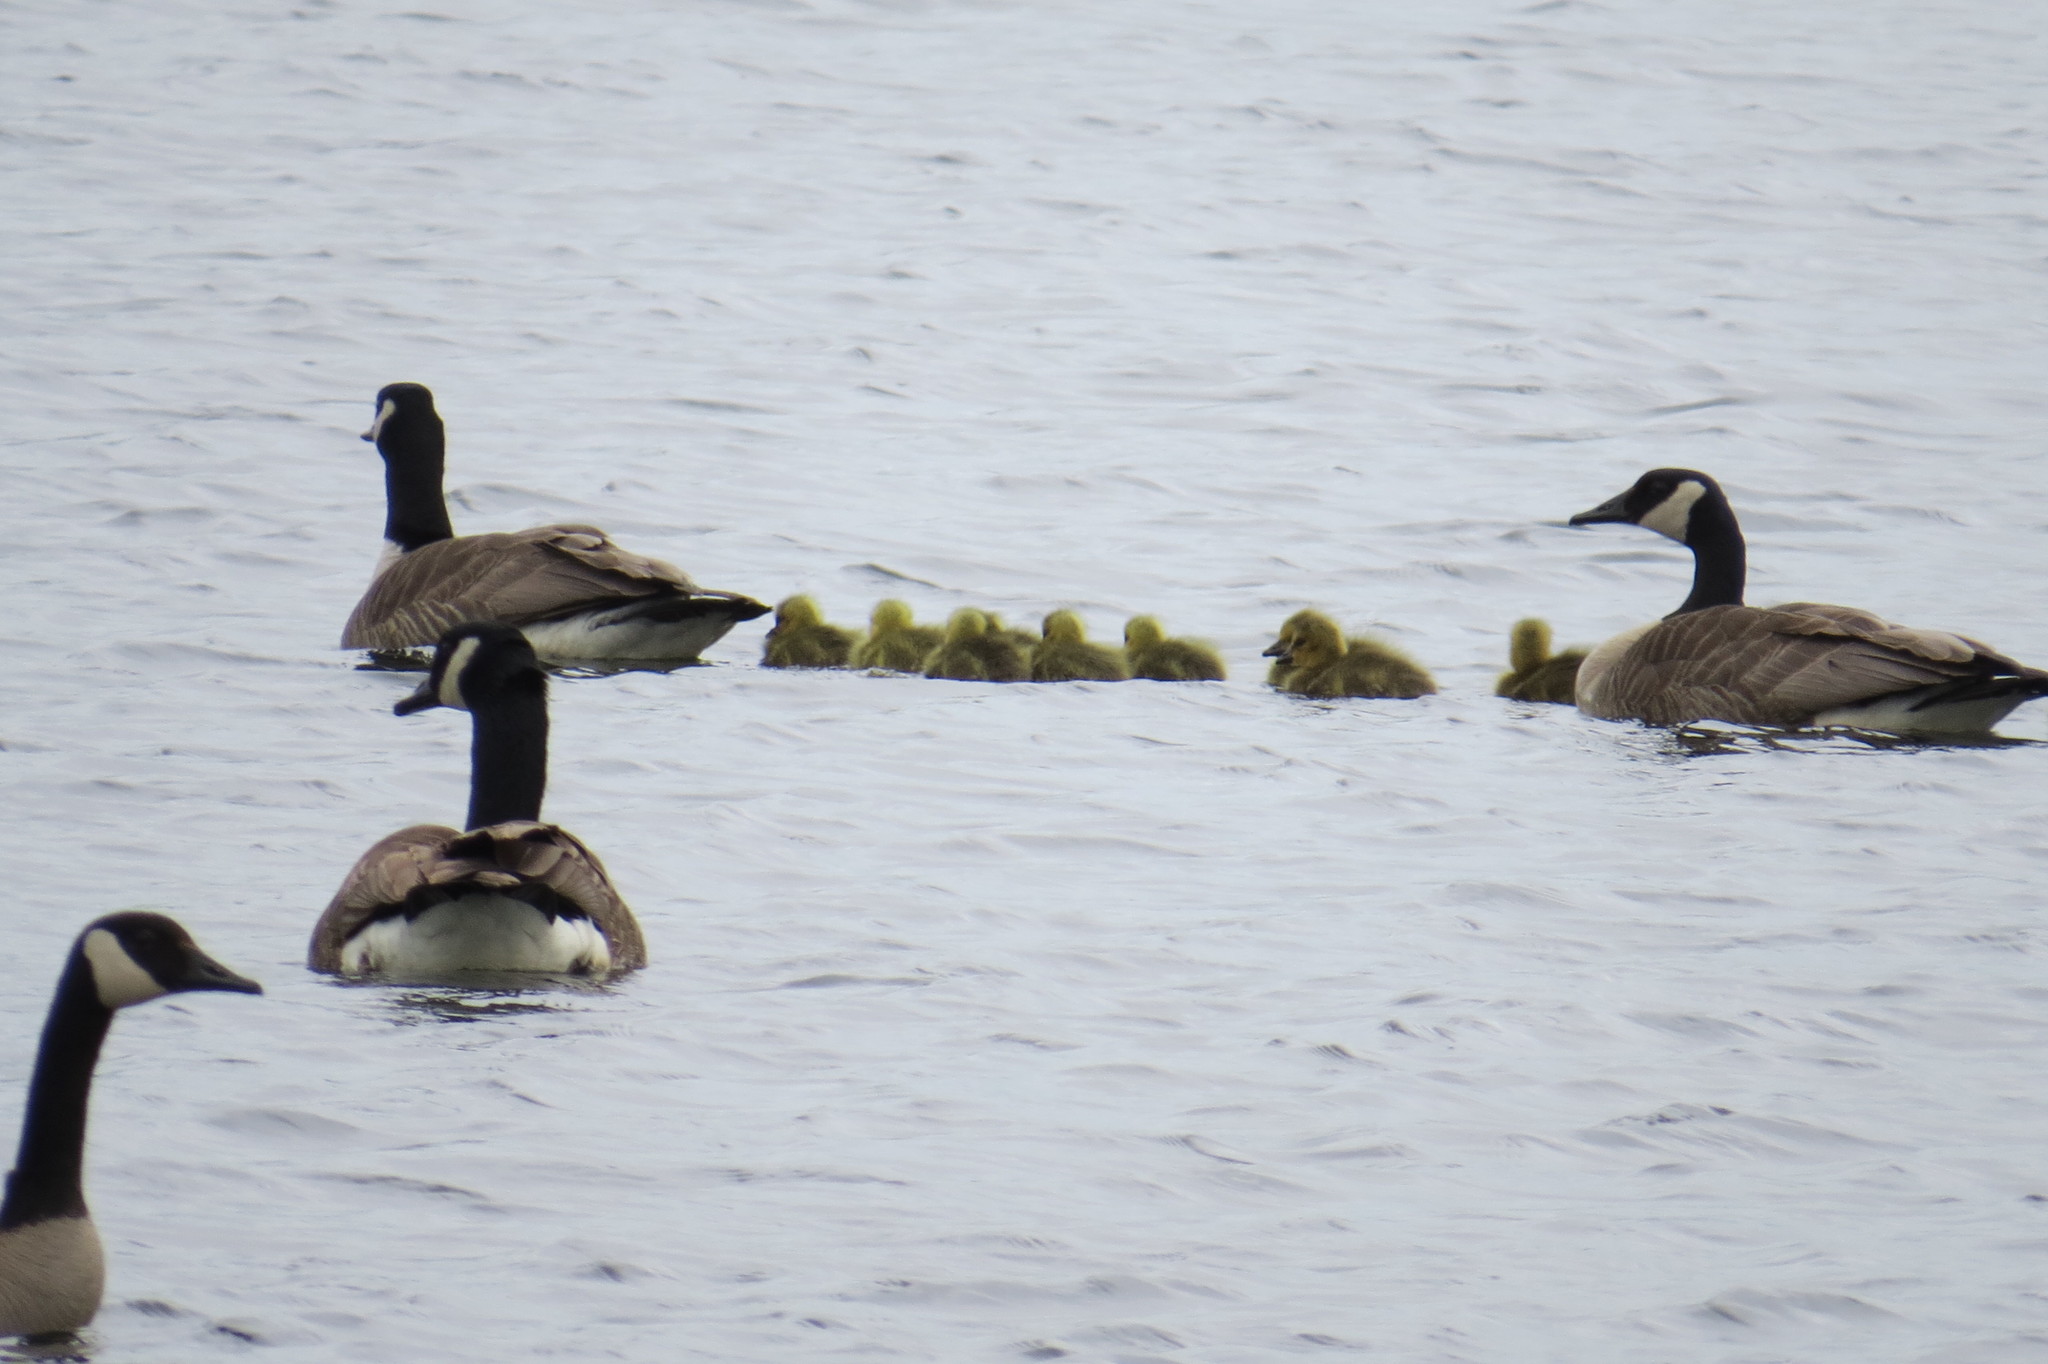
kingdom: Animalia
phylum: Chordata
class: Aves
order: Anseriformes
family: Anatidae
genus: Branta
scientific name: Branta canadensis
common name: Canada goose
